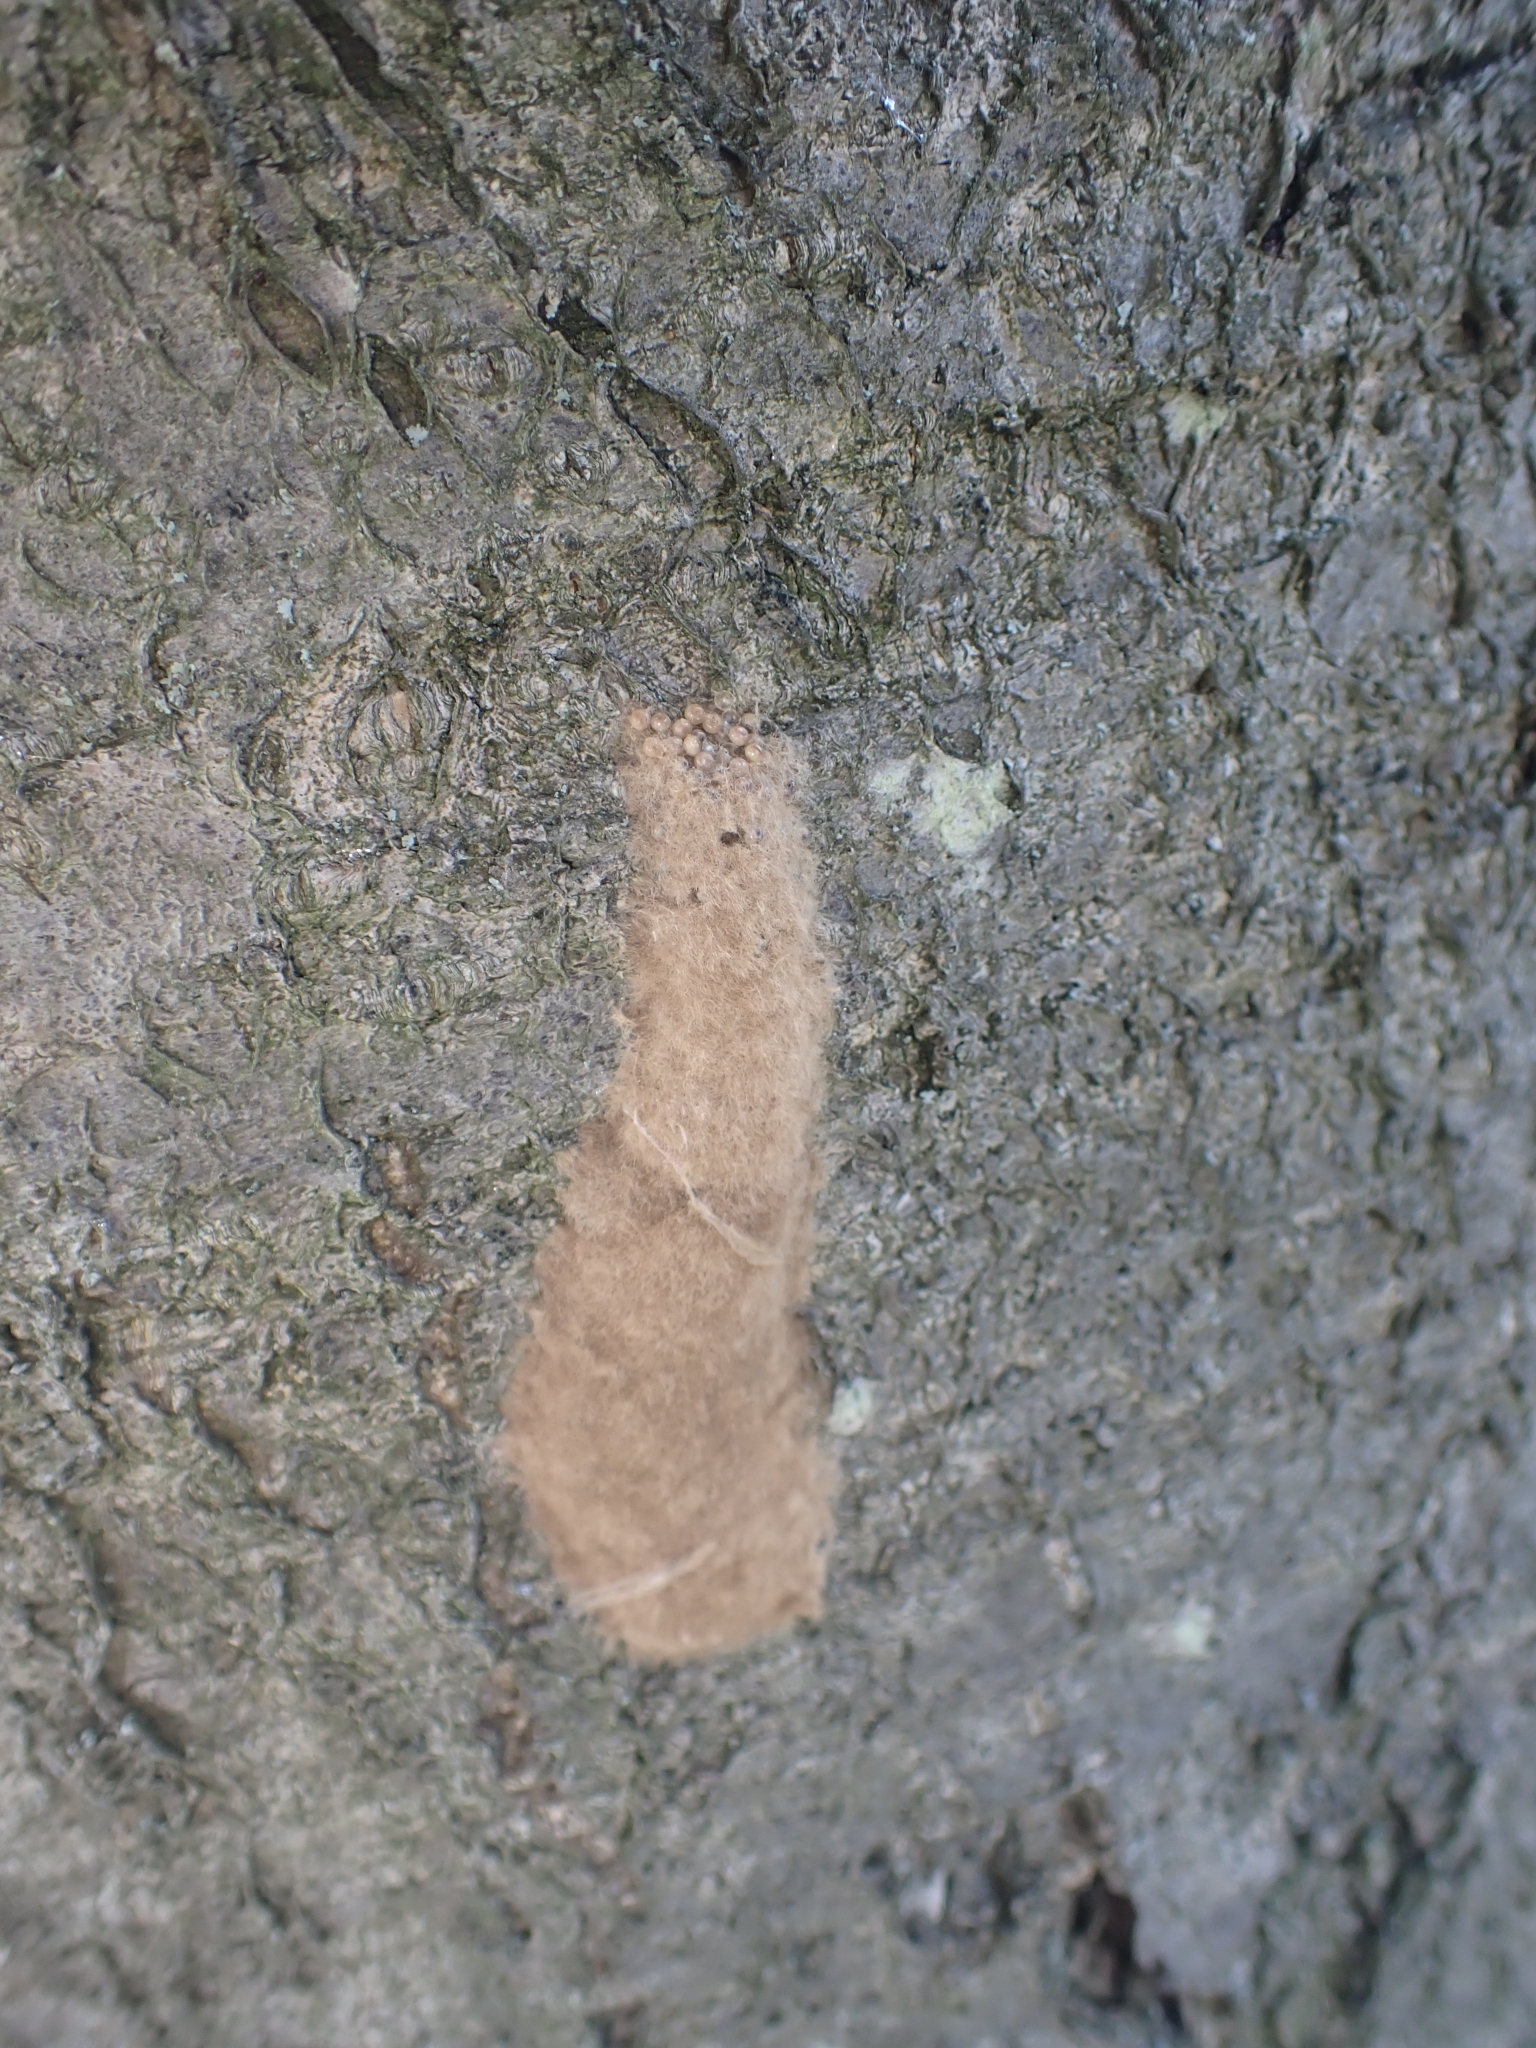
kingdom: Animalia
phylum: Arthropoda
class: Insecta
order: Lepidoptera
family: Erebidae
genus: Lymantria
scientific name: Lymantria dispar
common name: Gypsy moth
